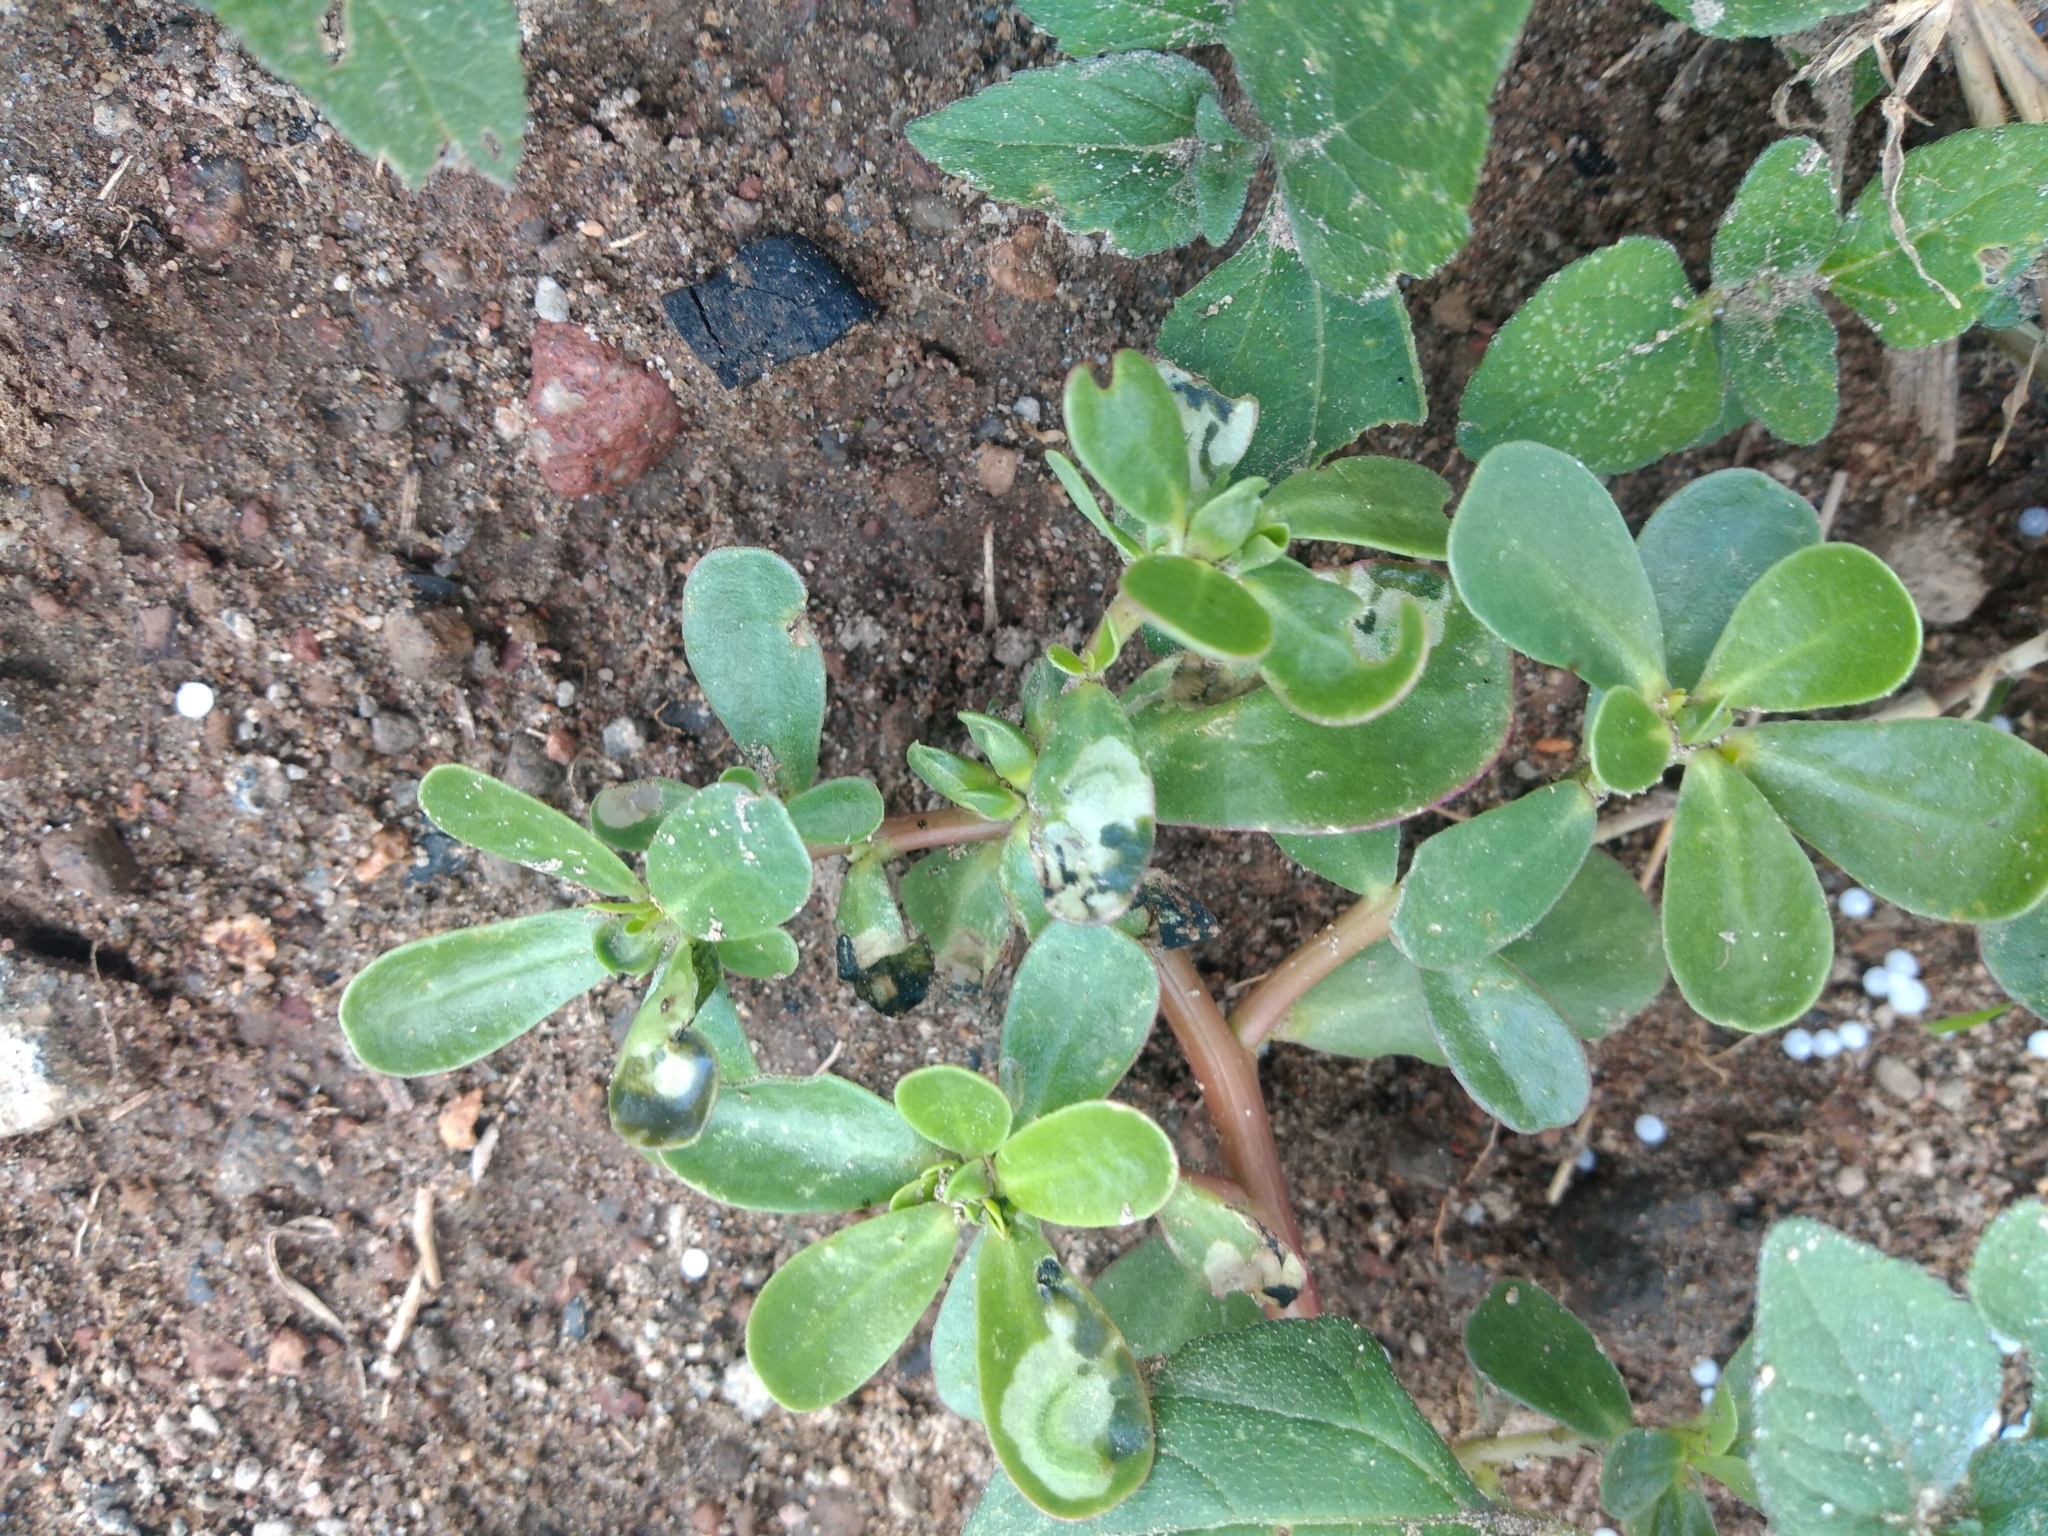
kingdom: Plantae
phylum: Tracheophyta
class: Magnoliopsida
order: Caryophyllales
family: Portulacaceae
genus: Portulaca
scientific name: Portulaca oleracea
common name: Common purslane
